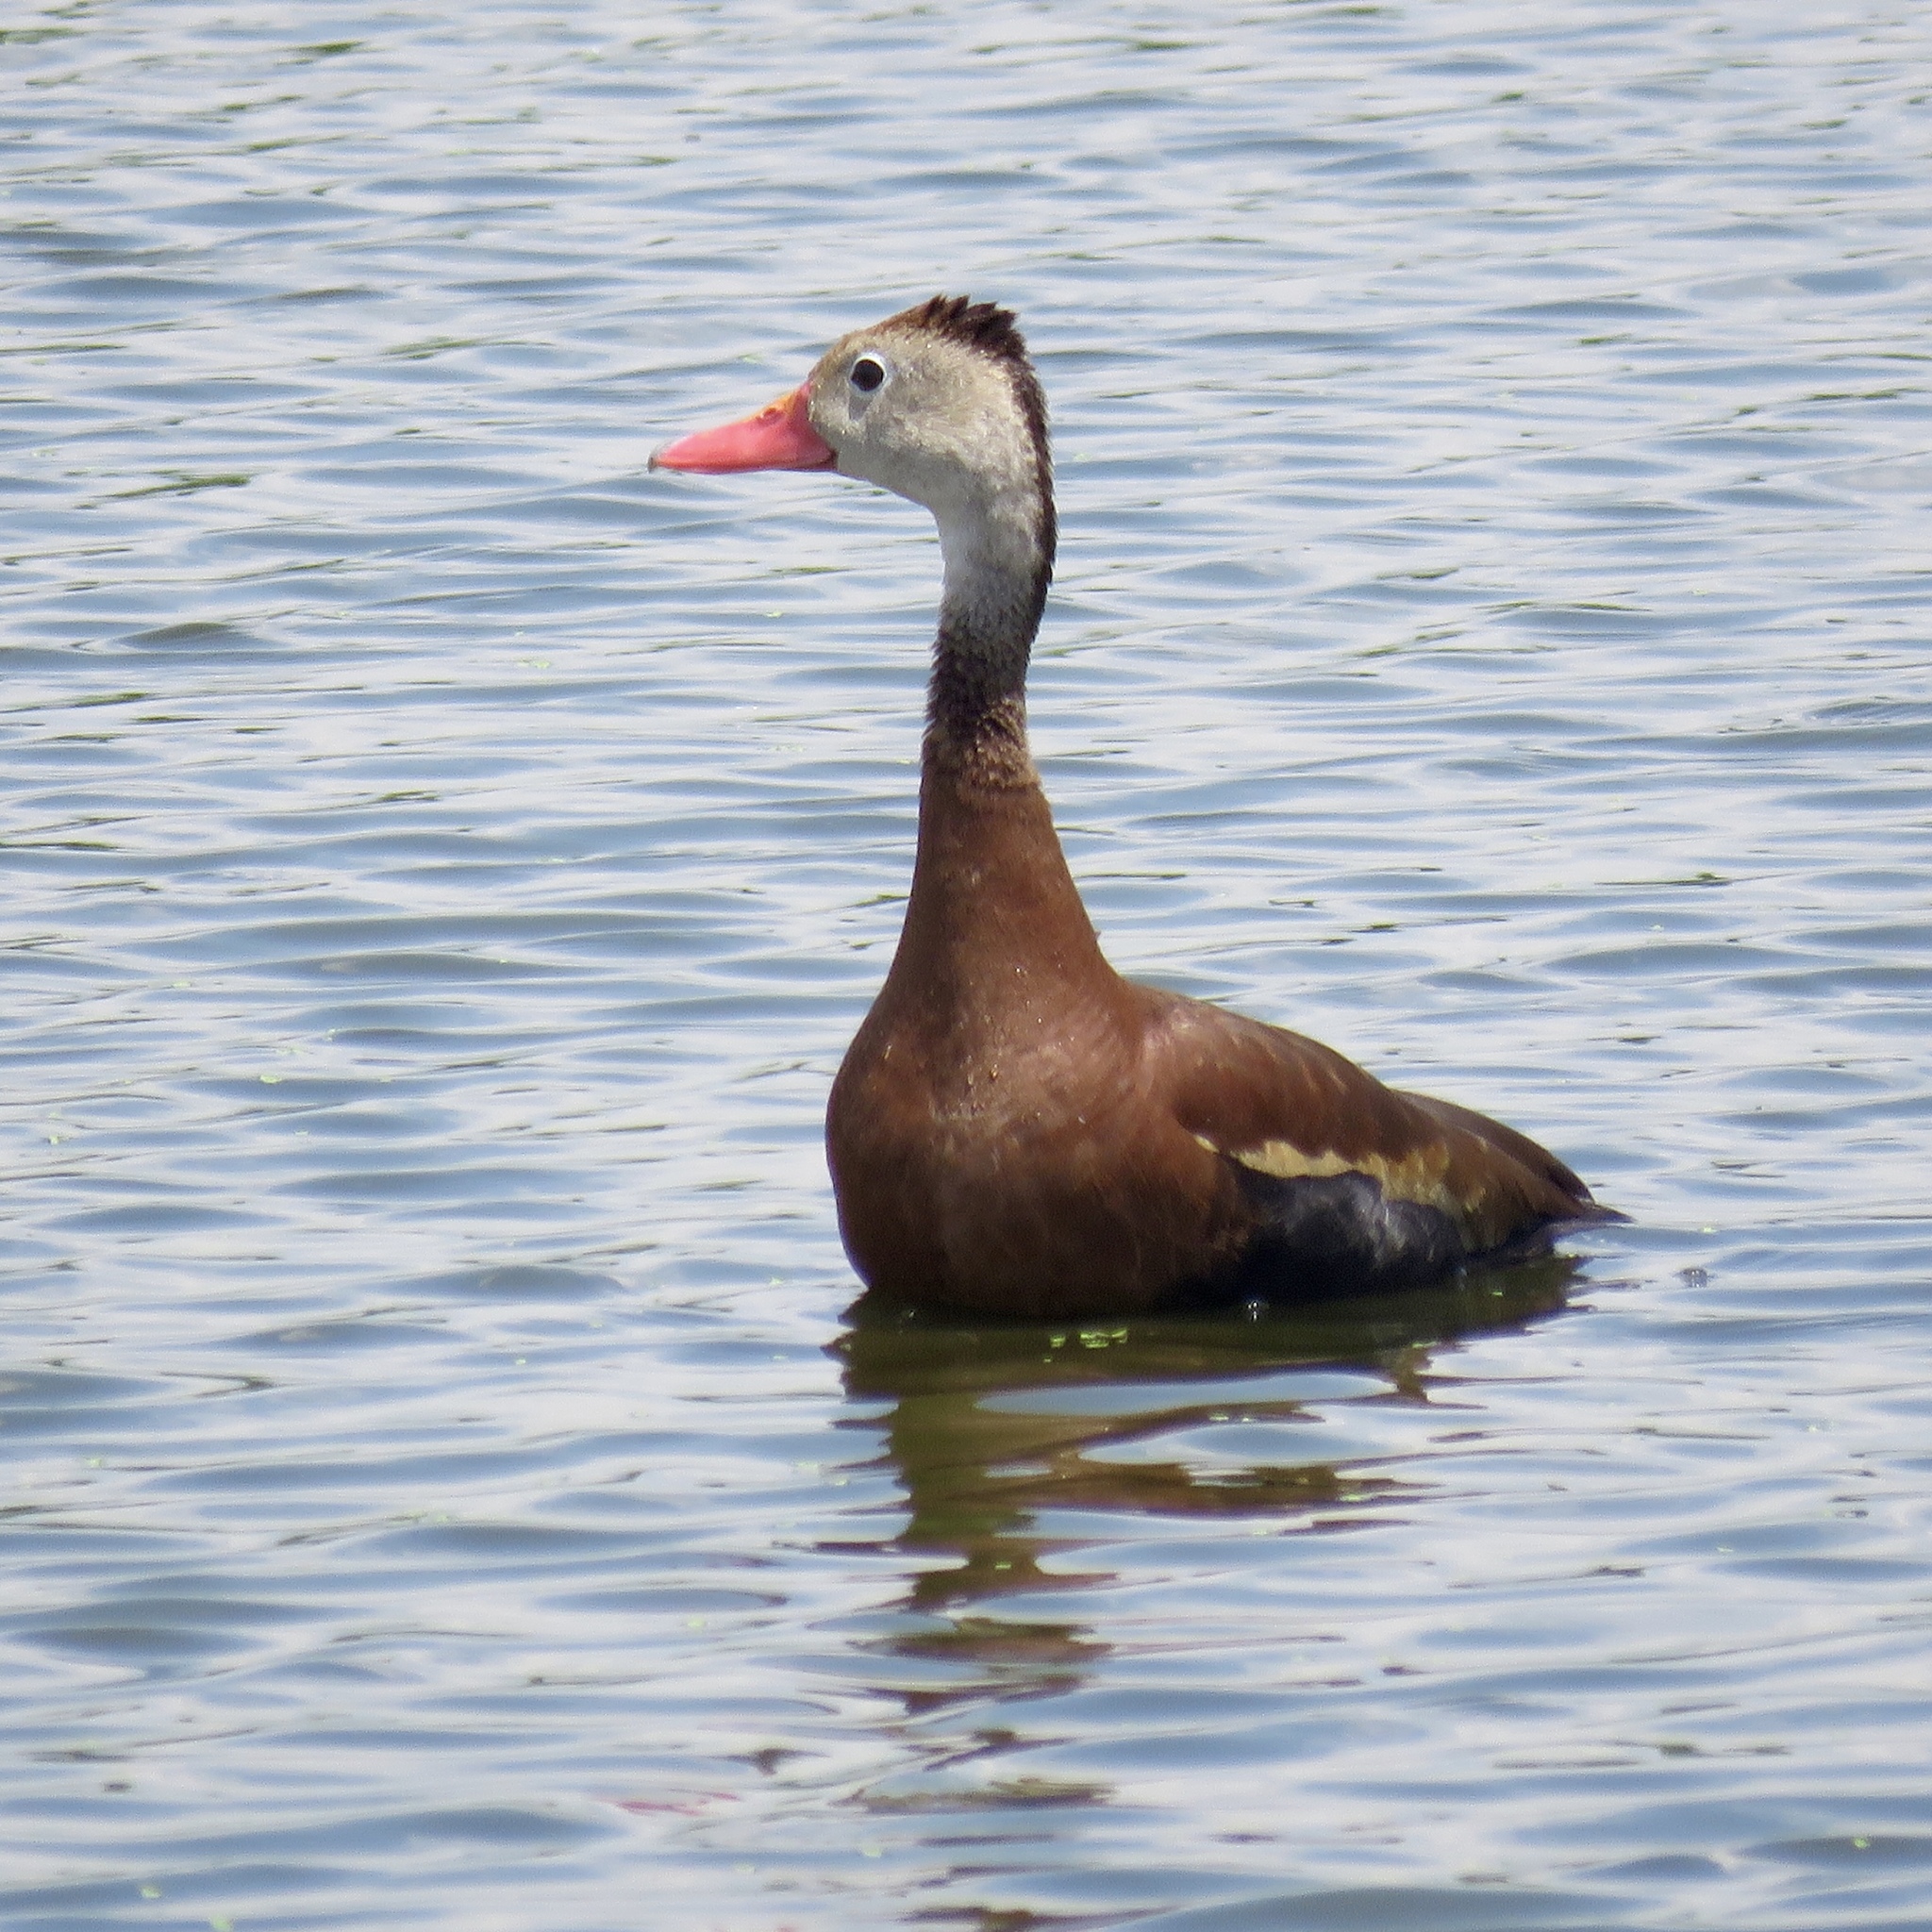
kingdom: Animalia
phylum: Chordata
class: Aves
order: Anseriformes
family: Anatidae
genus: Dendrocygna
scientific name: Dendrocygna autumnalis
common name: Black-bellied whistling duck
